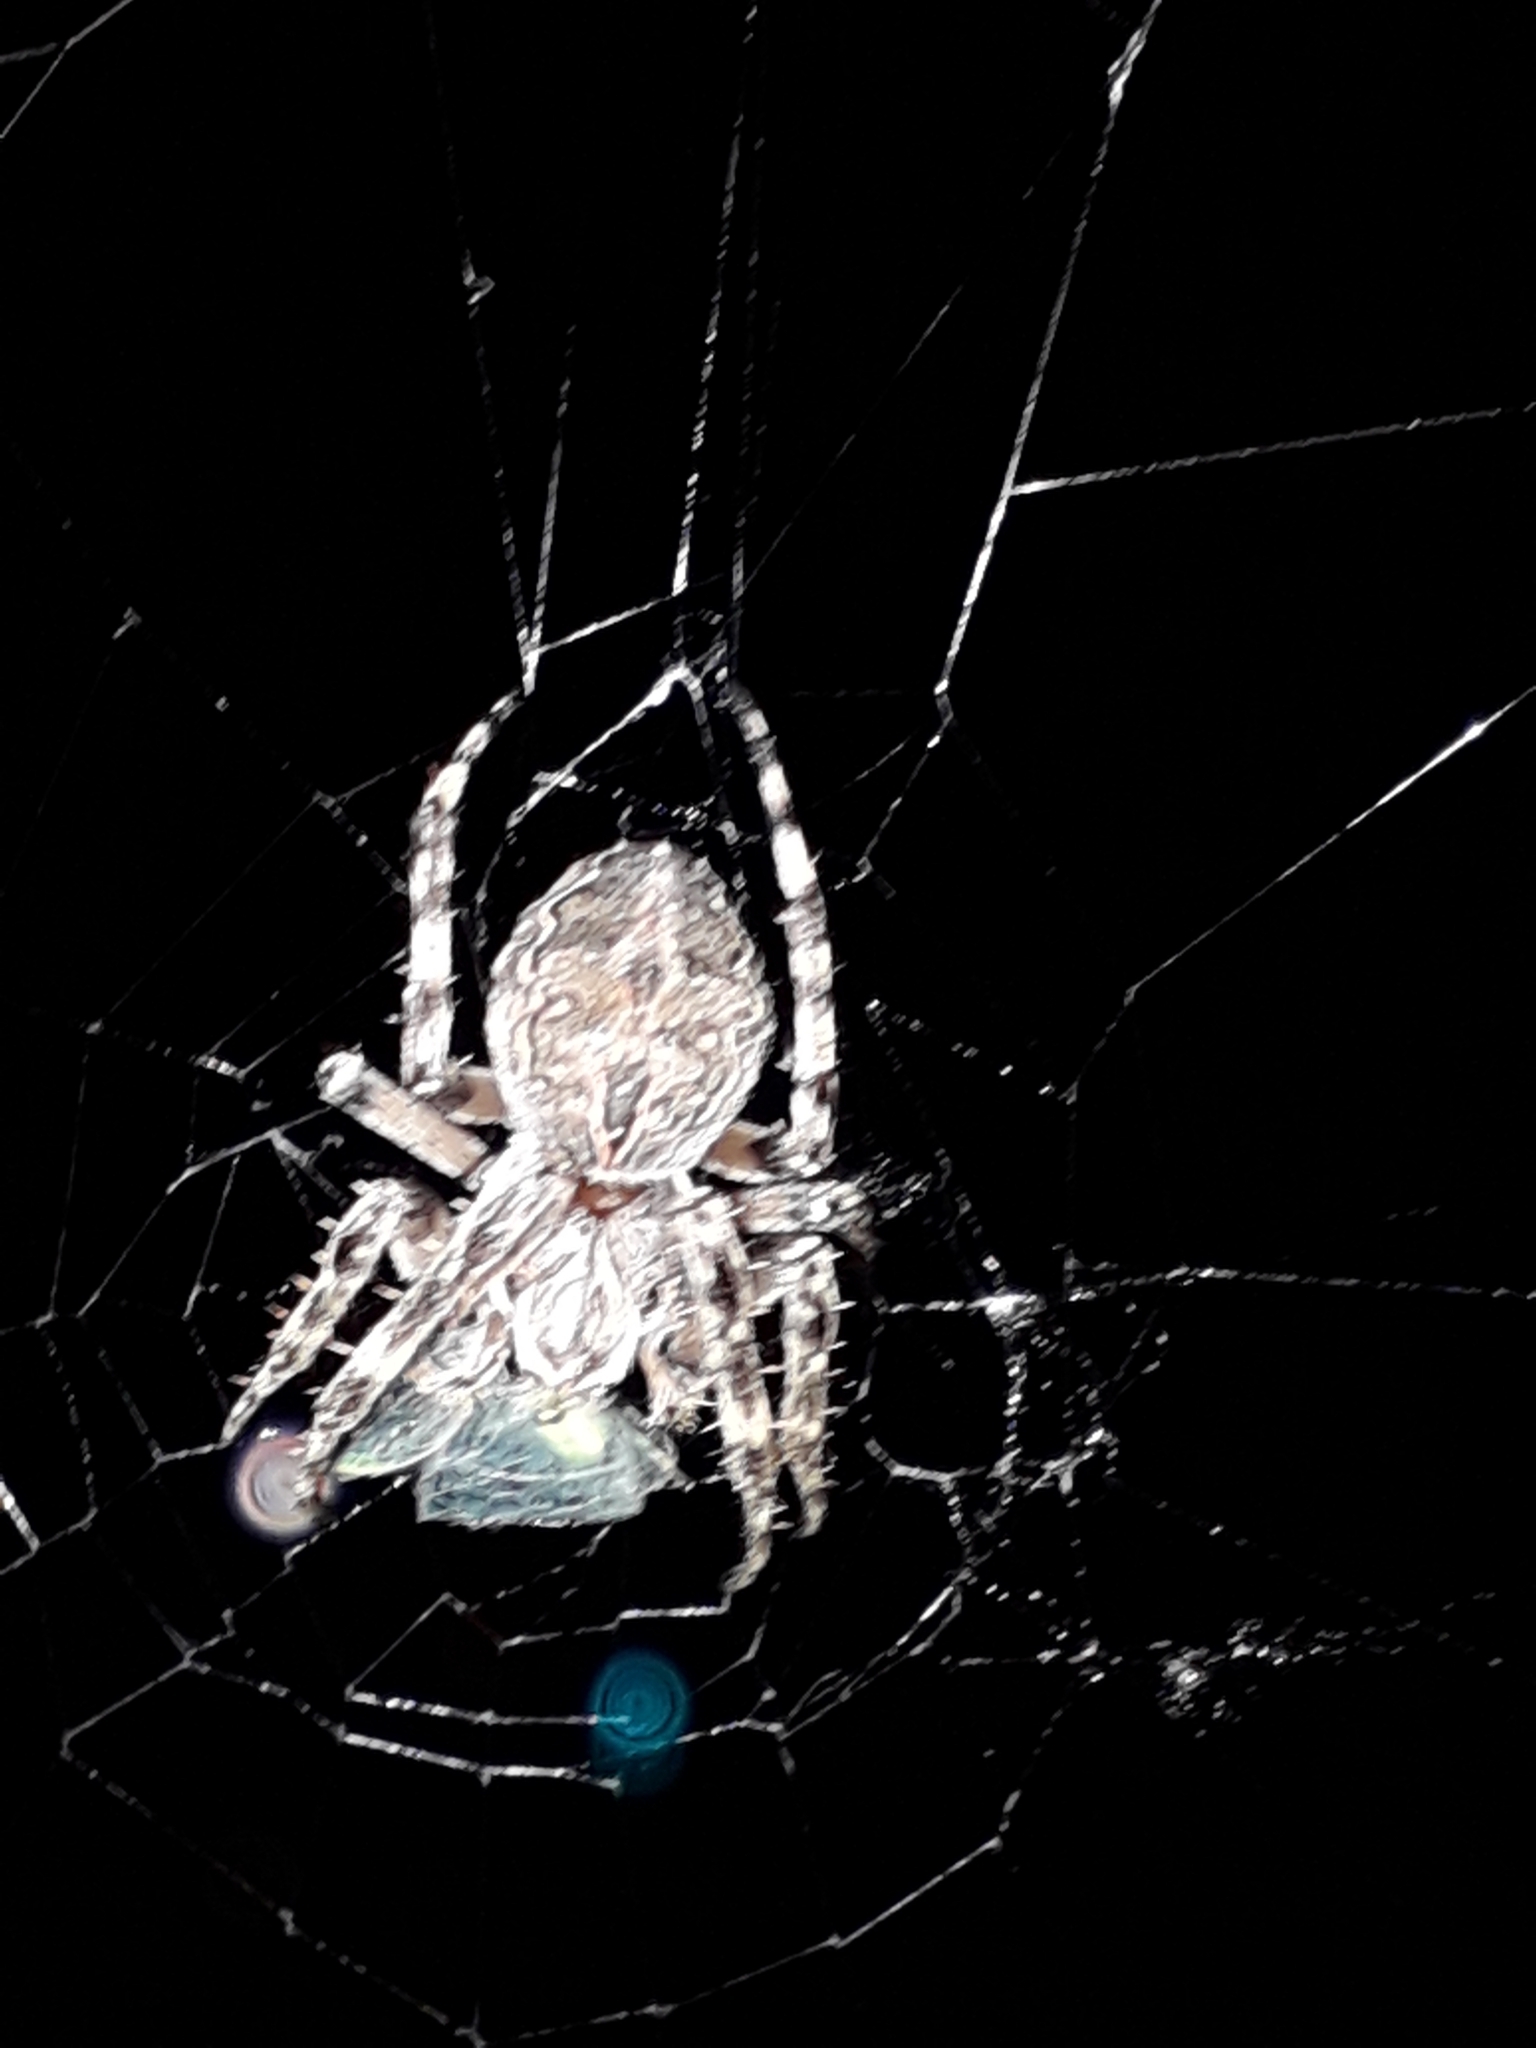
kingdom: Animalia
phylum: Arthropoda
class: Arachnida
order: Araneae
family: Araneidae
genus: Larinioides
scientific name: Larinioides sclopetarius
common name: Bridge orbweaver
